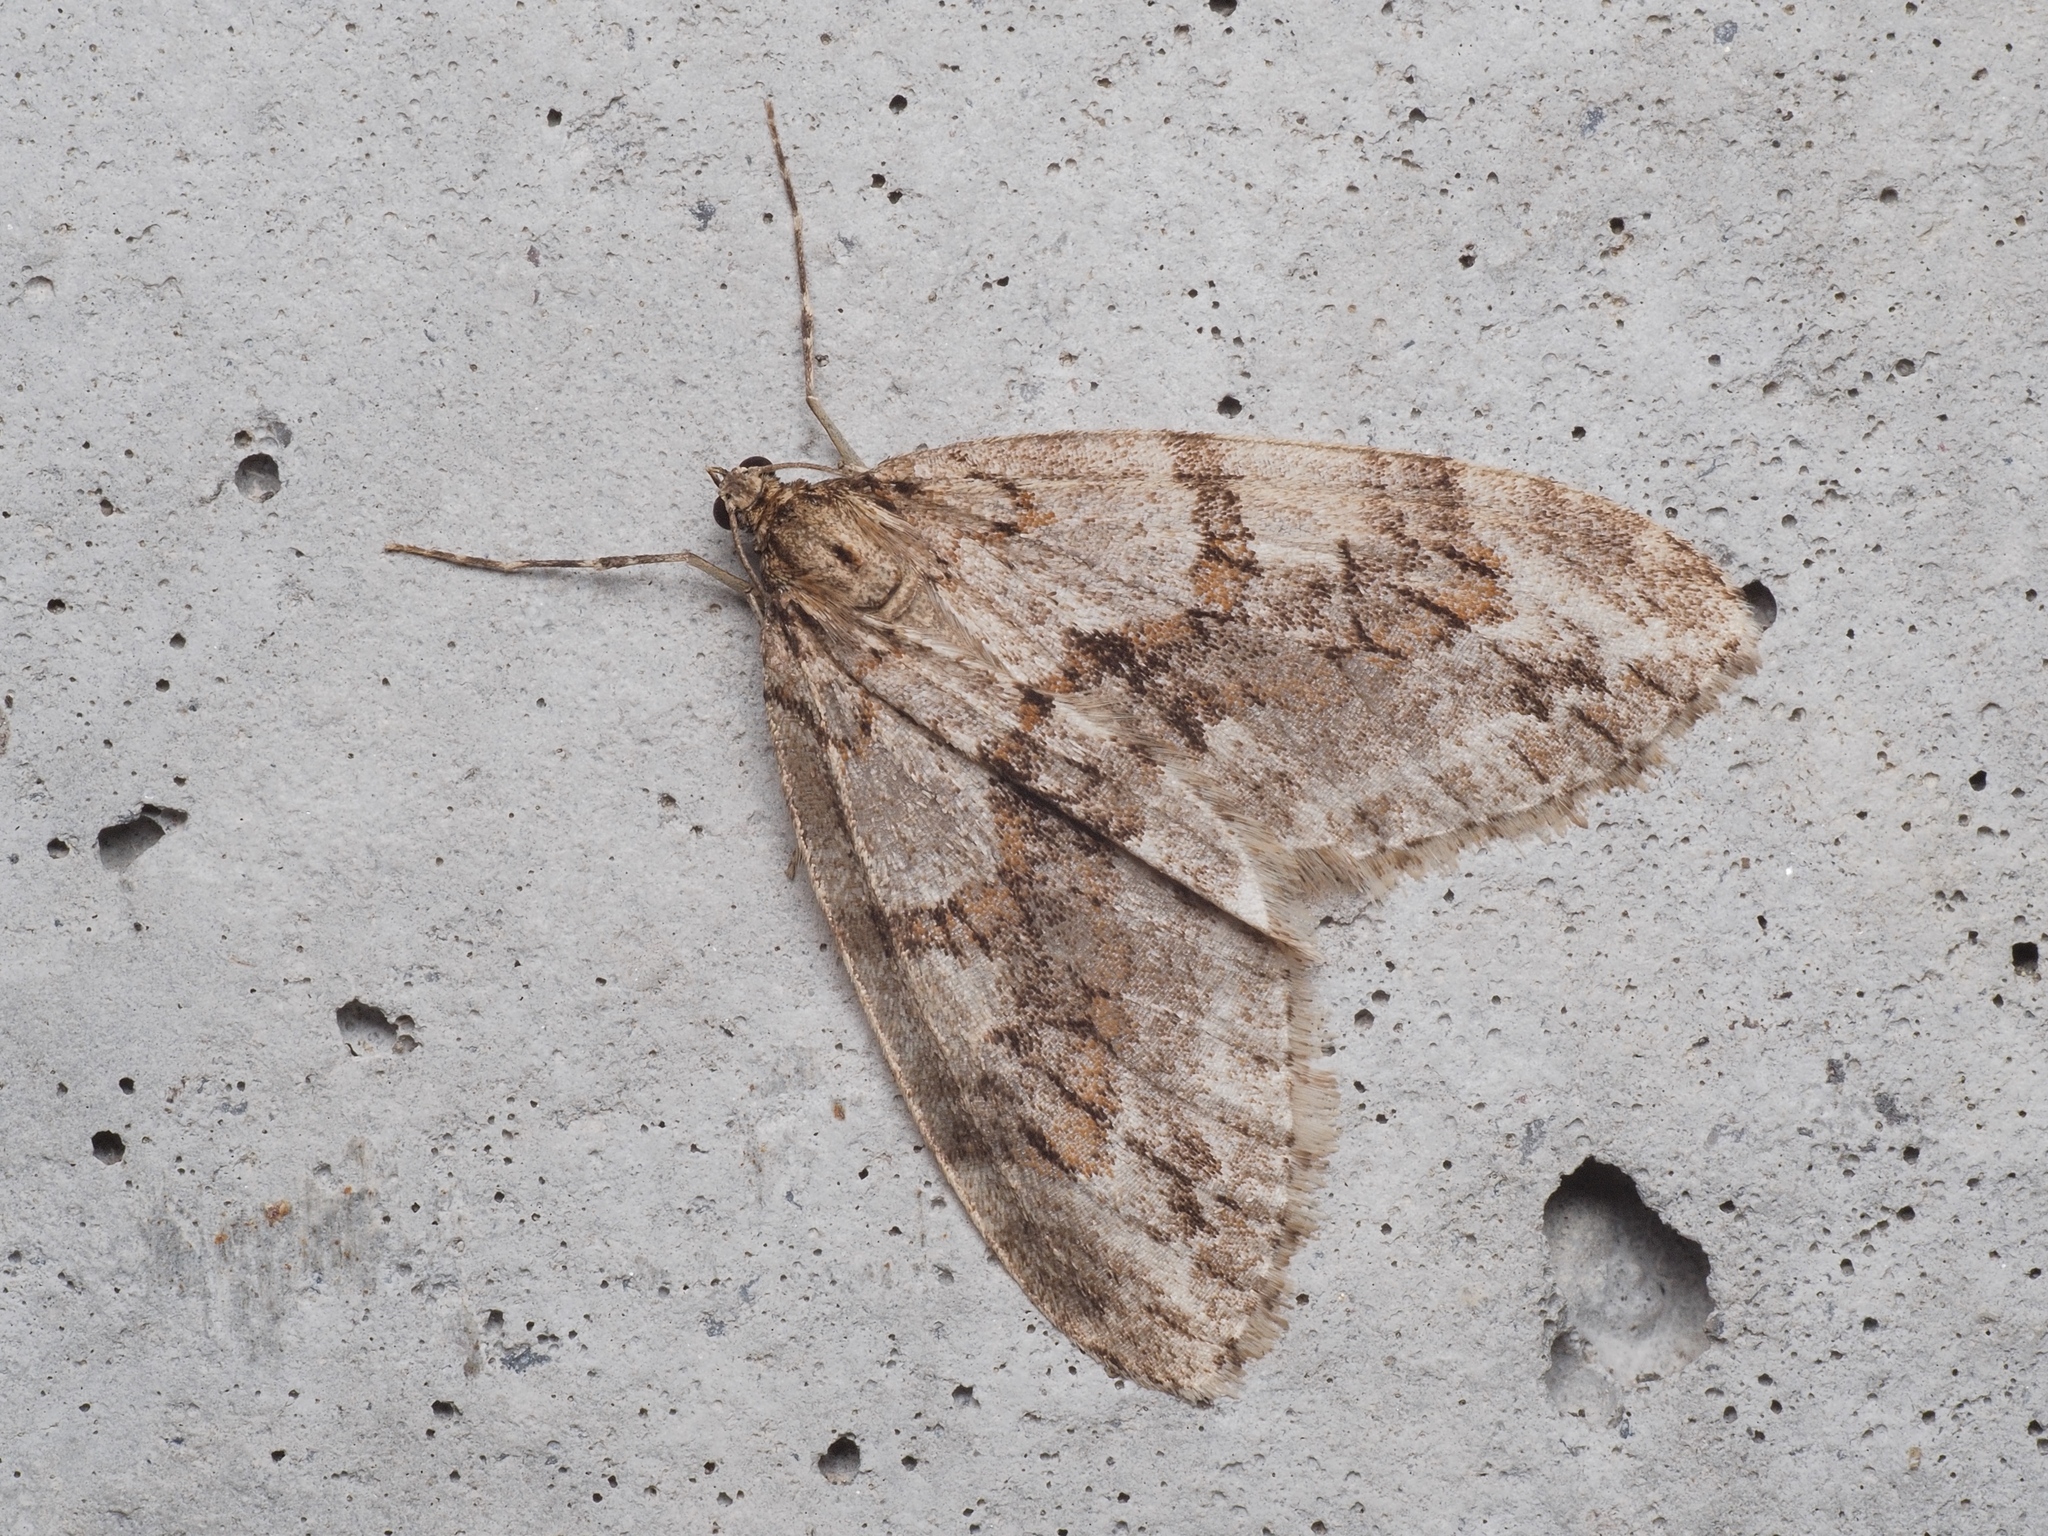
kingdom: Animalia
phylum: Arthropoda
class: Insecta
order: Lepidoptera
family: Geometridae
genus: Trichopteryx
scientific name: Trichopteryx polycommata
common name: Barred tooth-striped
